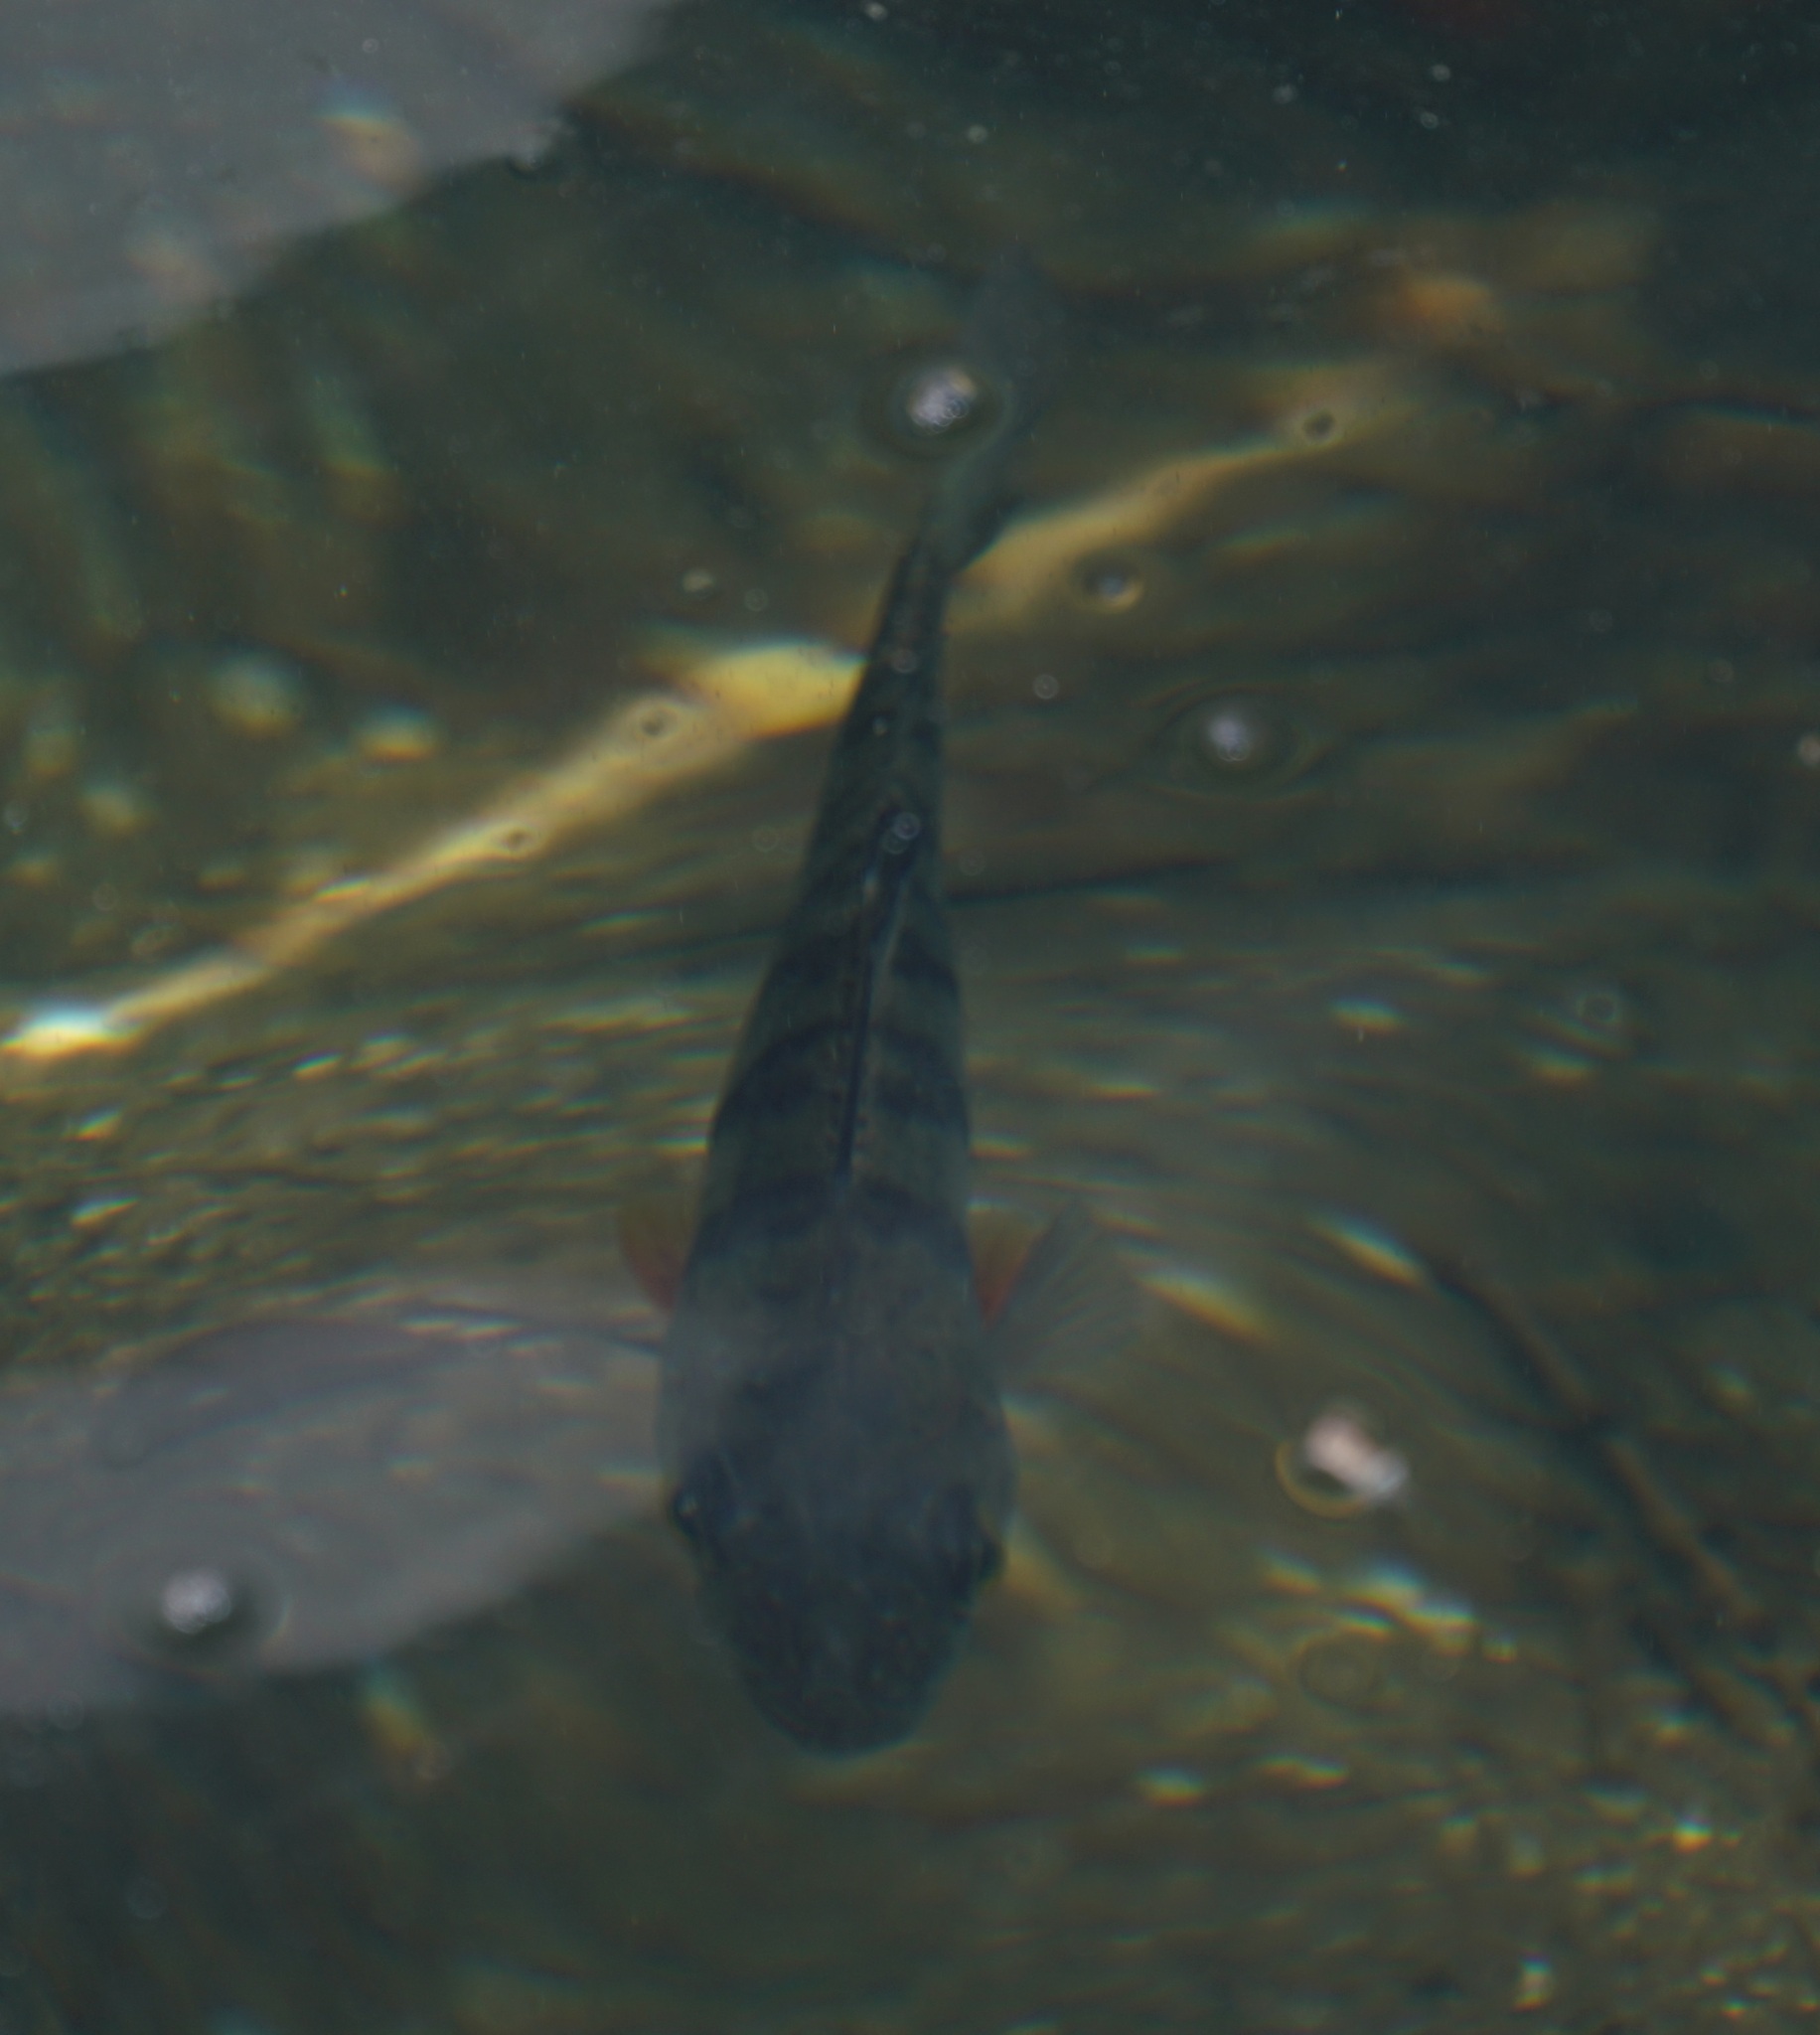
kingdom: Animalia
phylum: Chordata
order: Perciformes
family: Percidae
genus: Perca
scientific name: Perca fluviatilis
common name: Perch
